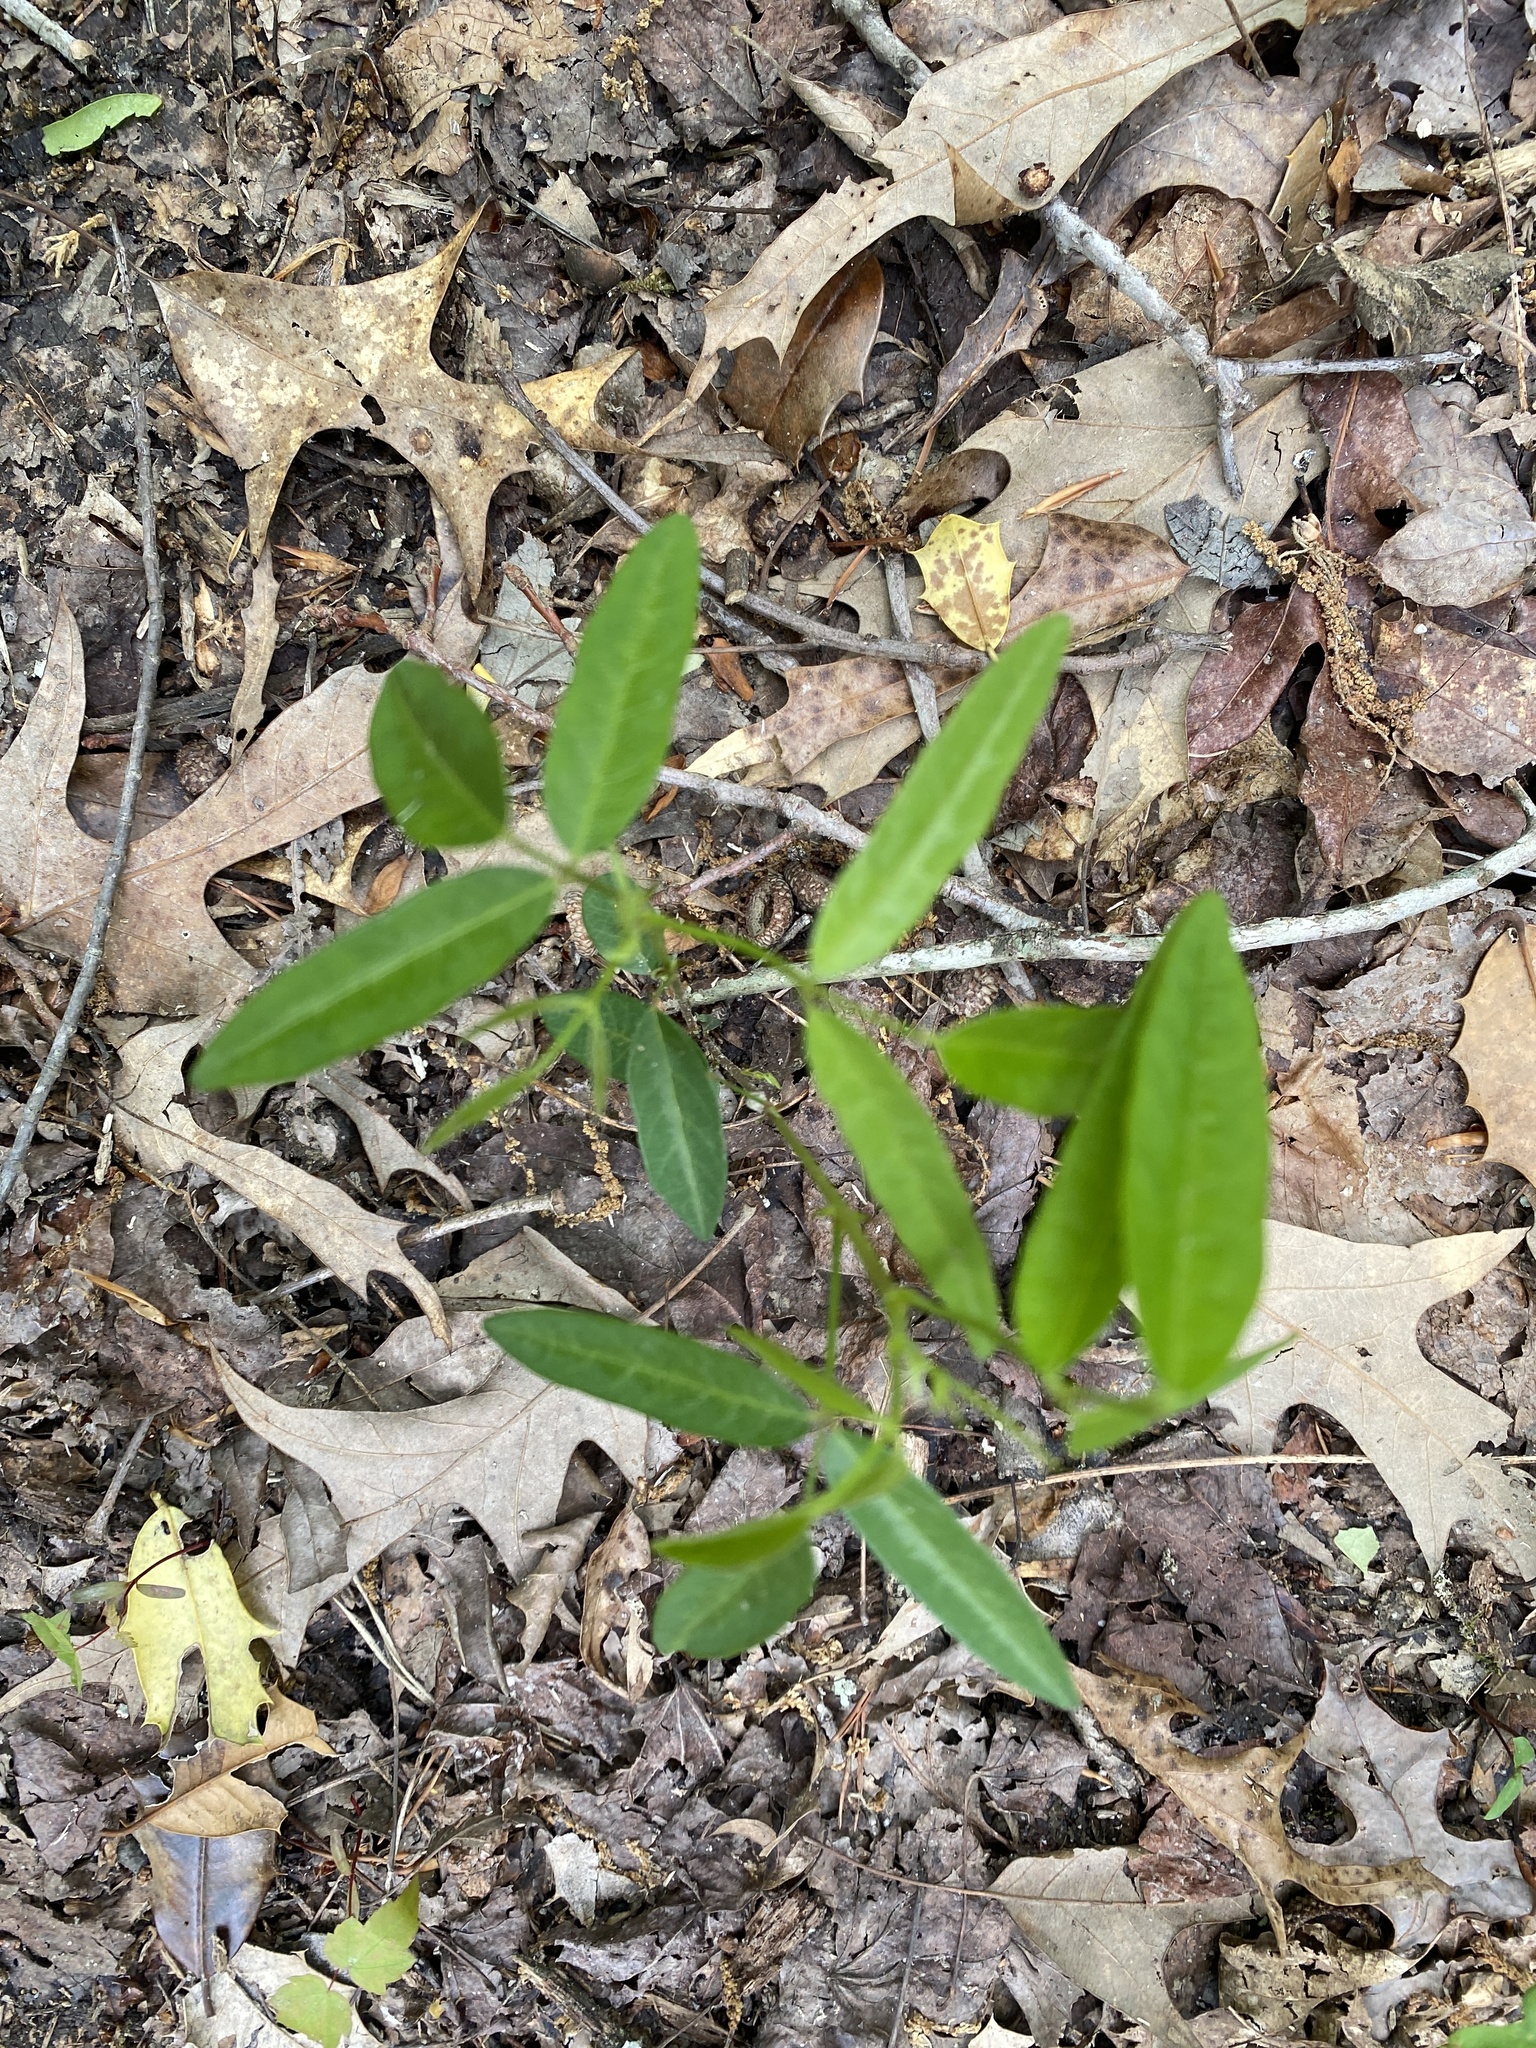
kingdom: Plantae
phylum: Tracheophyta
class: Magnoliopsida
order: Fabales
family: Fabaceae
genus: Desmodium
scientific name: Desmodium paniculatum
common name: Panicled tick-clover
